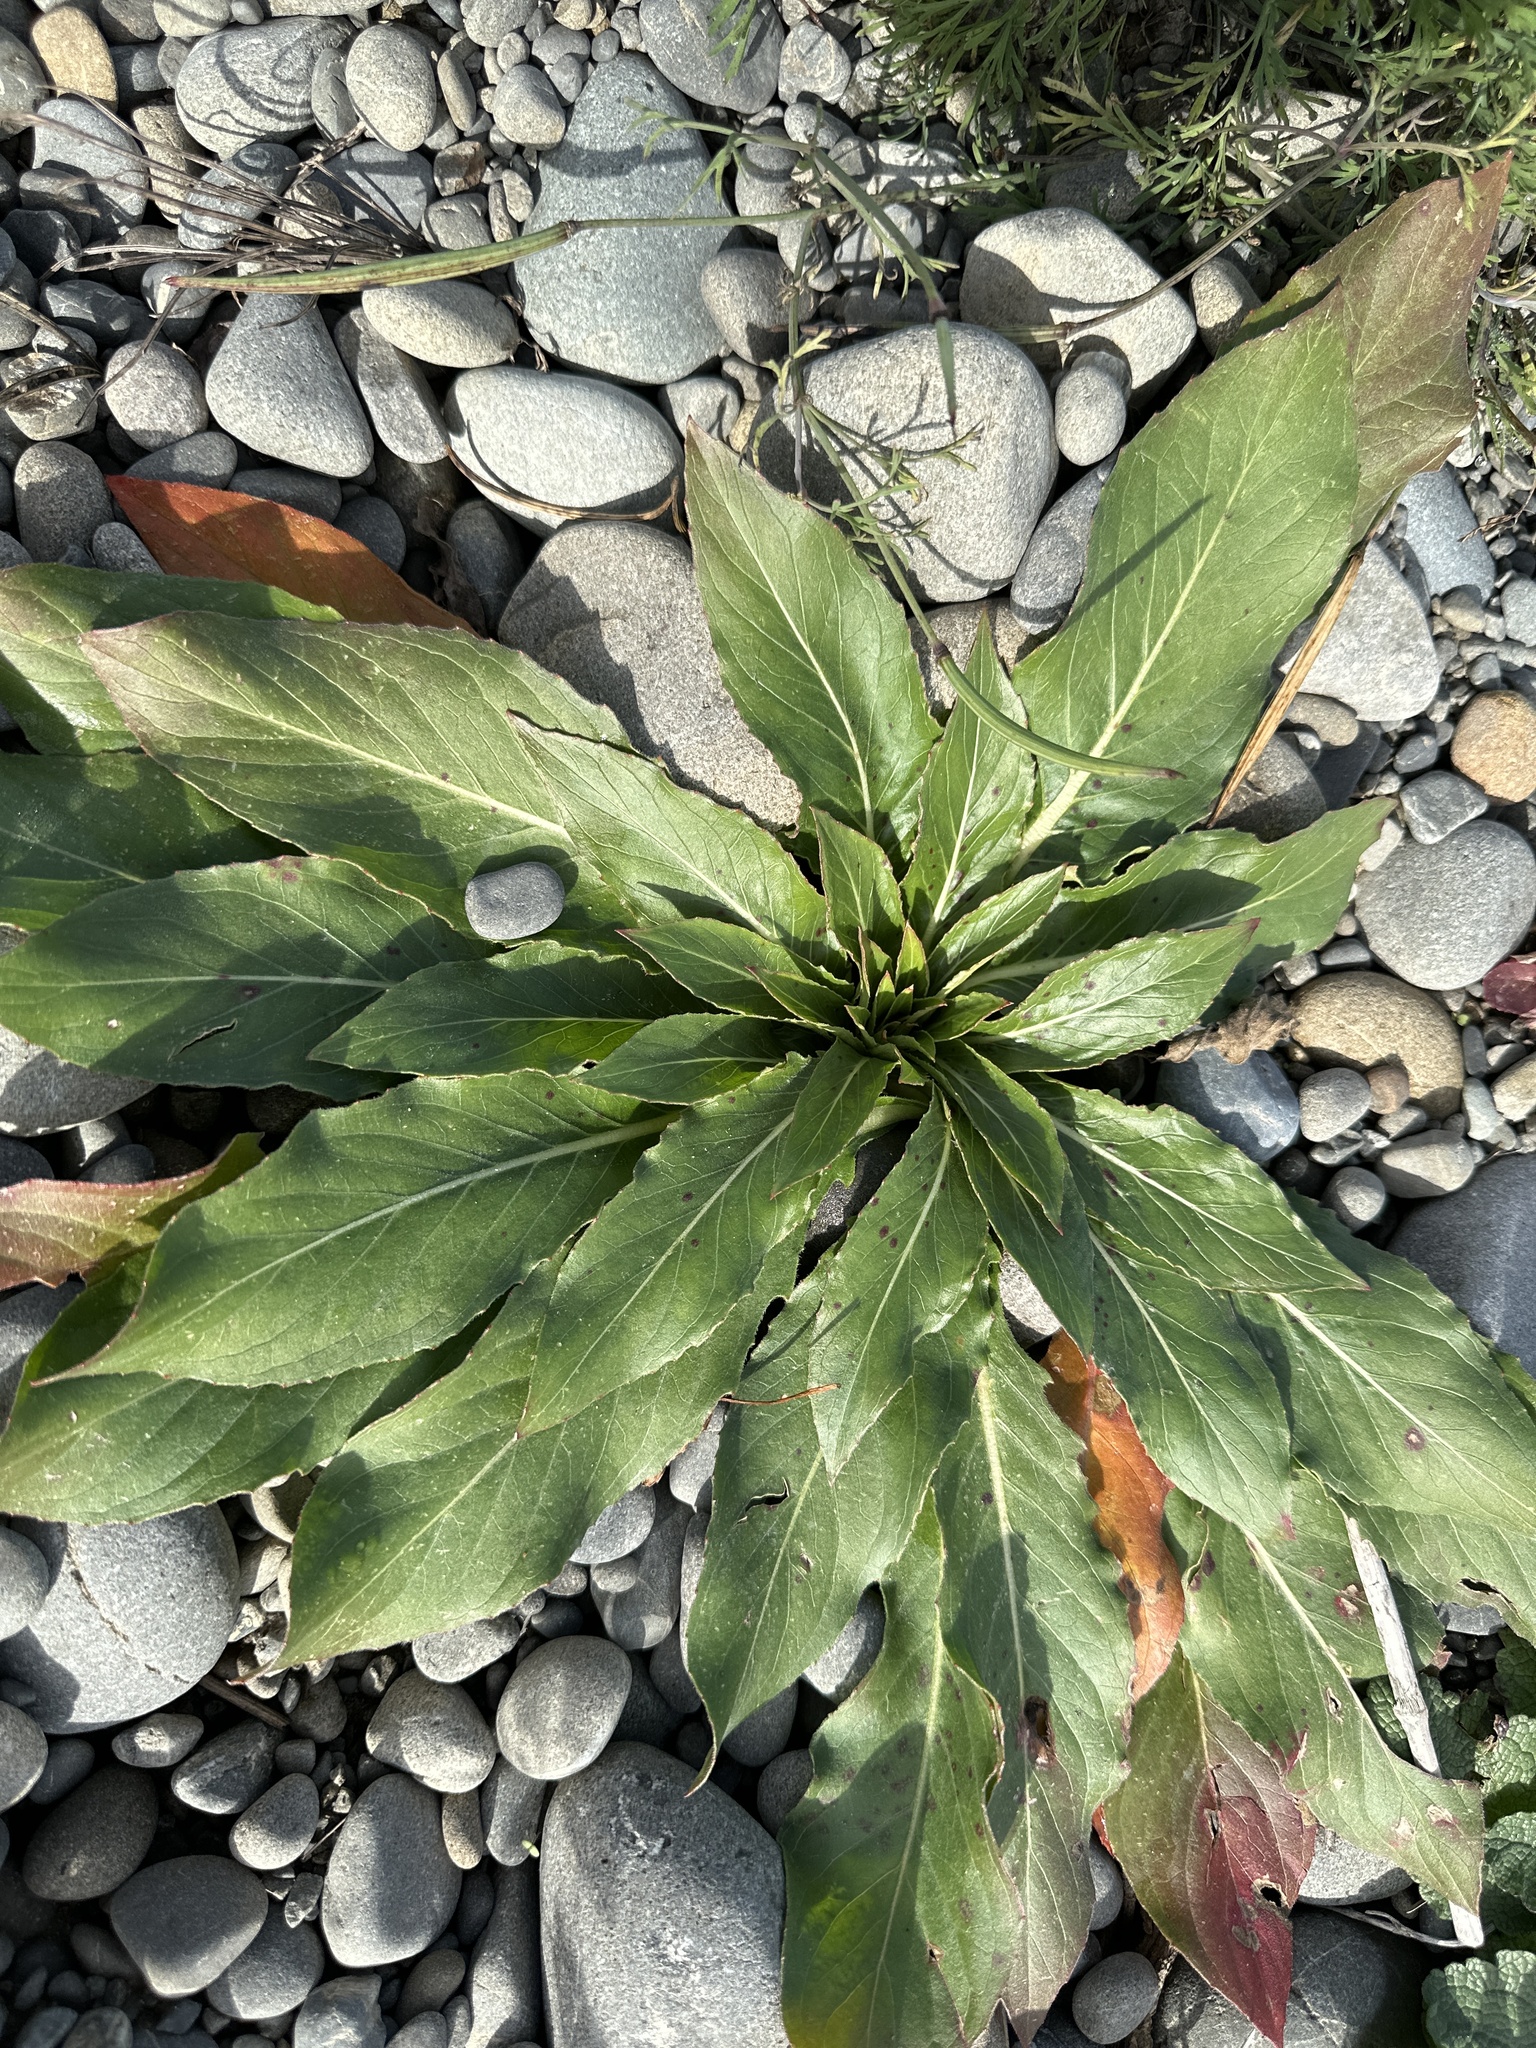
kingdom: Plantae
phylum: Tracheophyta
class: Magnoliopsida
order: Myrtales
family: Onagraceae
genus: Oenothera
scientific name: Oenothera biennis
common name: Common evening-primrose
